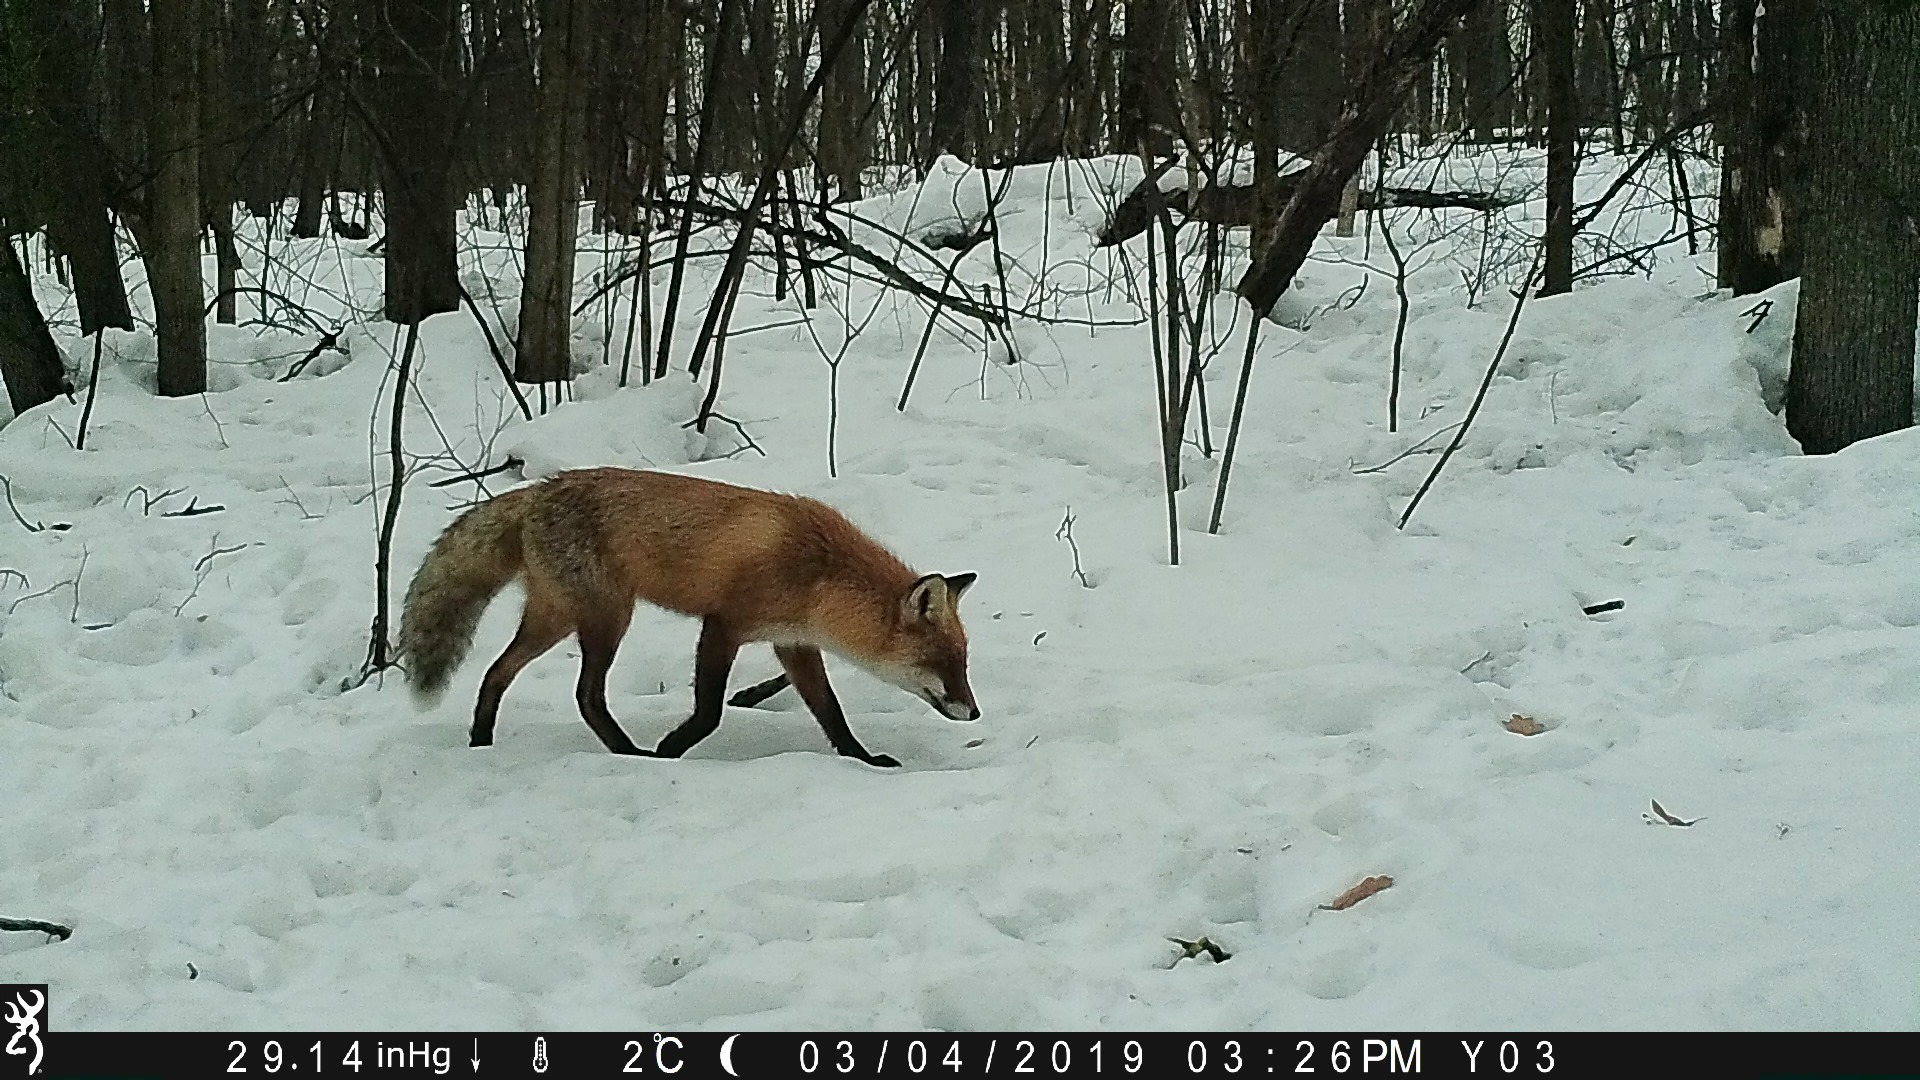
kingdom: Animalia
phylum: Chordata
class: Mammalia
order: Carnivora
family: Canidae
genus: Vulpes
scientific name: Vulpes vulpes
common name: Red fox
